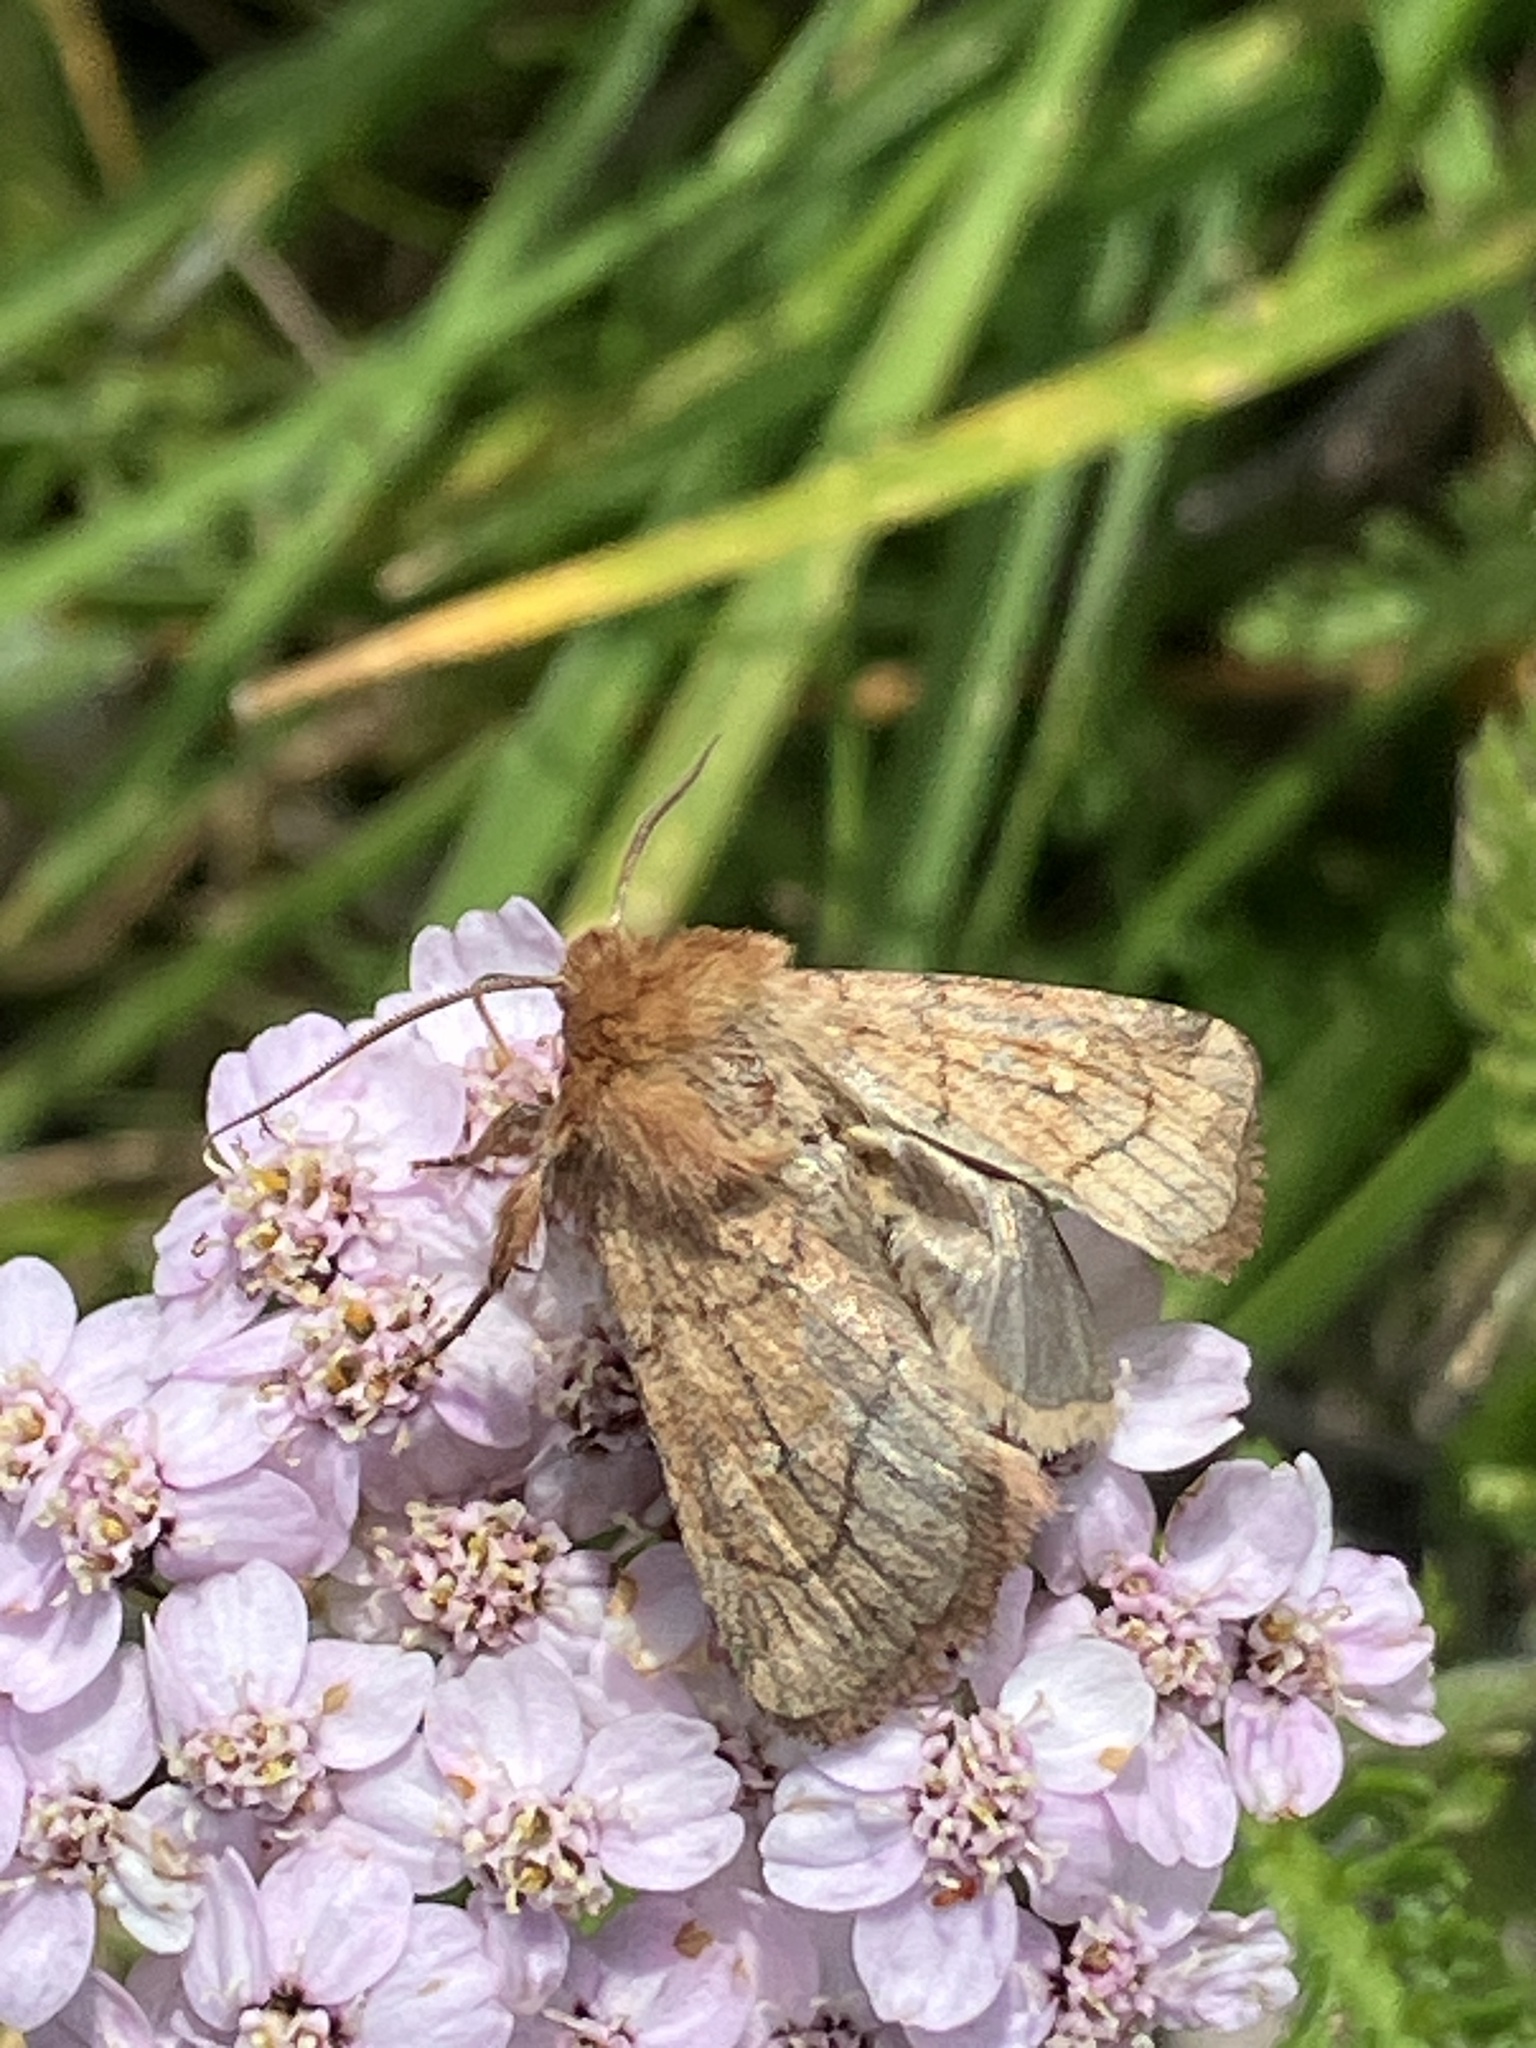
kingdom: Animalia
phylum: Arthropoda
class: Insecta
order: Lepidoptera
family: Noctuidae
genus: Lasionycta
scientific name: Lasionycta Eriopygodes imbecillus
